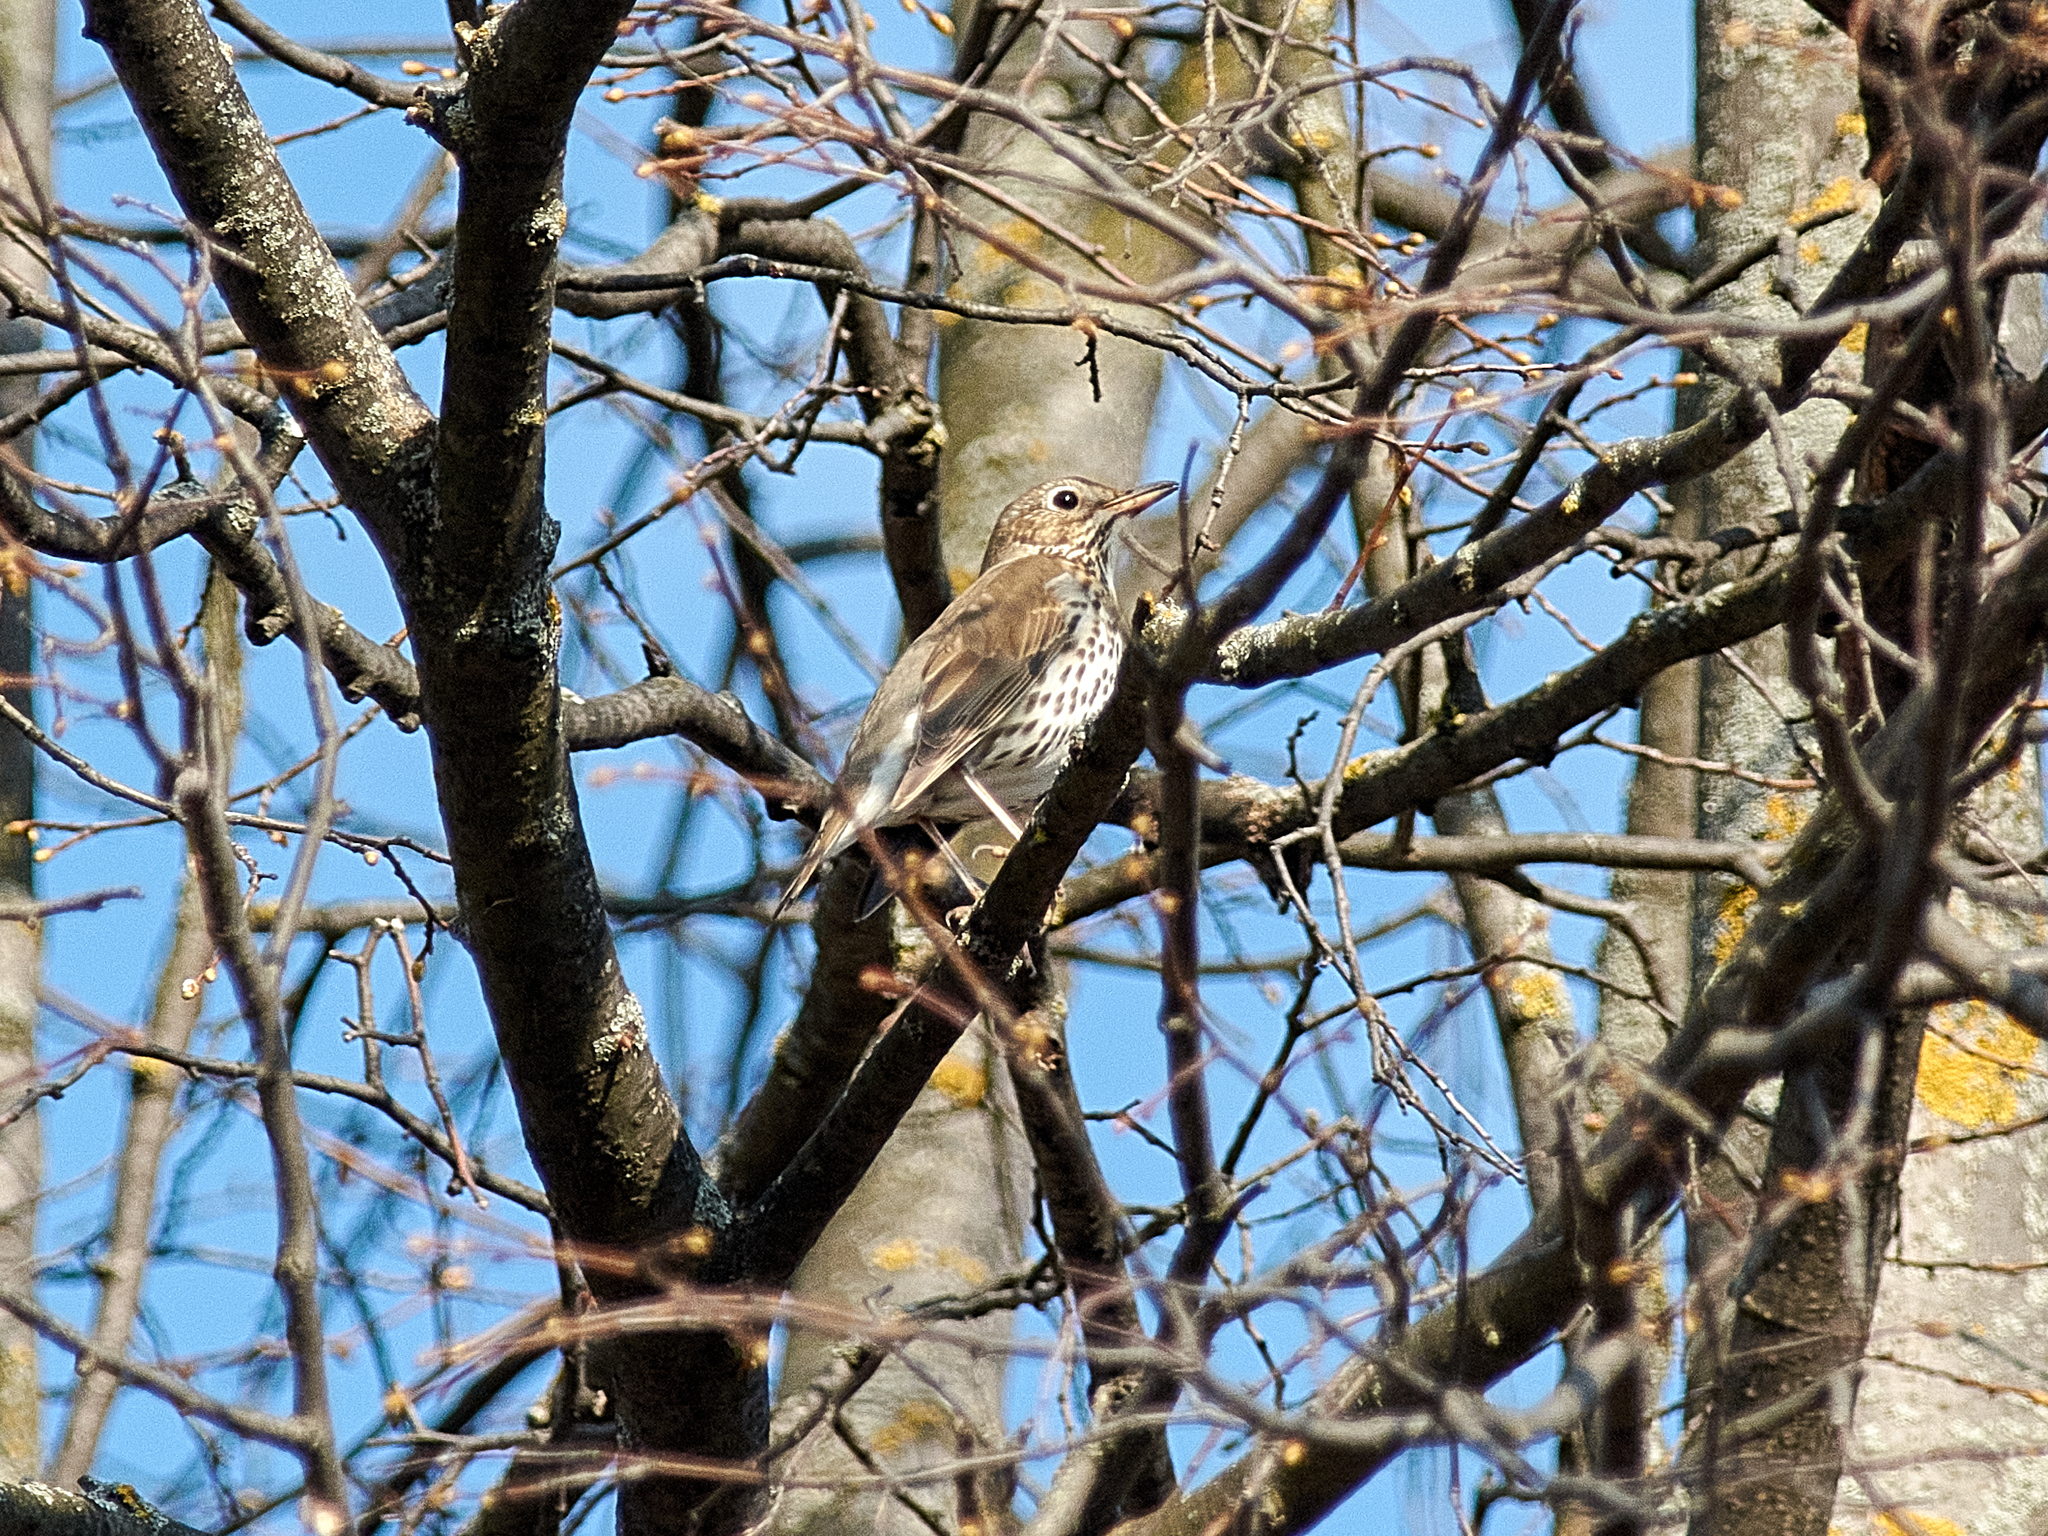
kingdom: Animalia
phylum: Chordata
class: Aves
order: Passeriformes
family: Turdidae
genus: Turdus
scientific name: Turdus philomelos
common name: Song thrush
